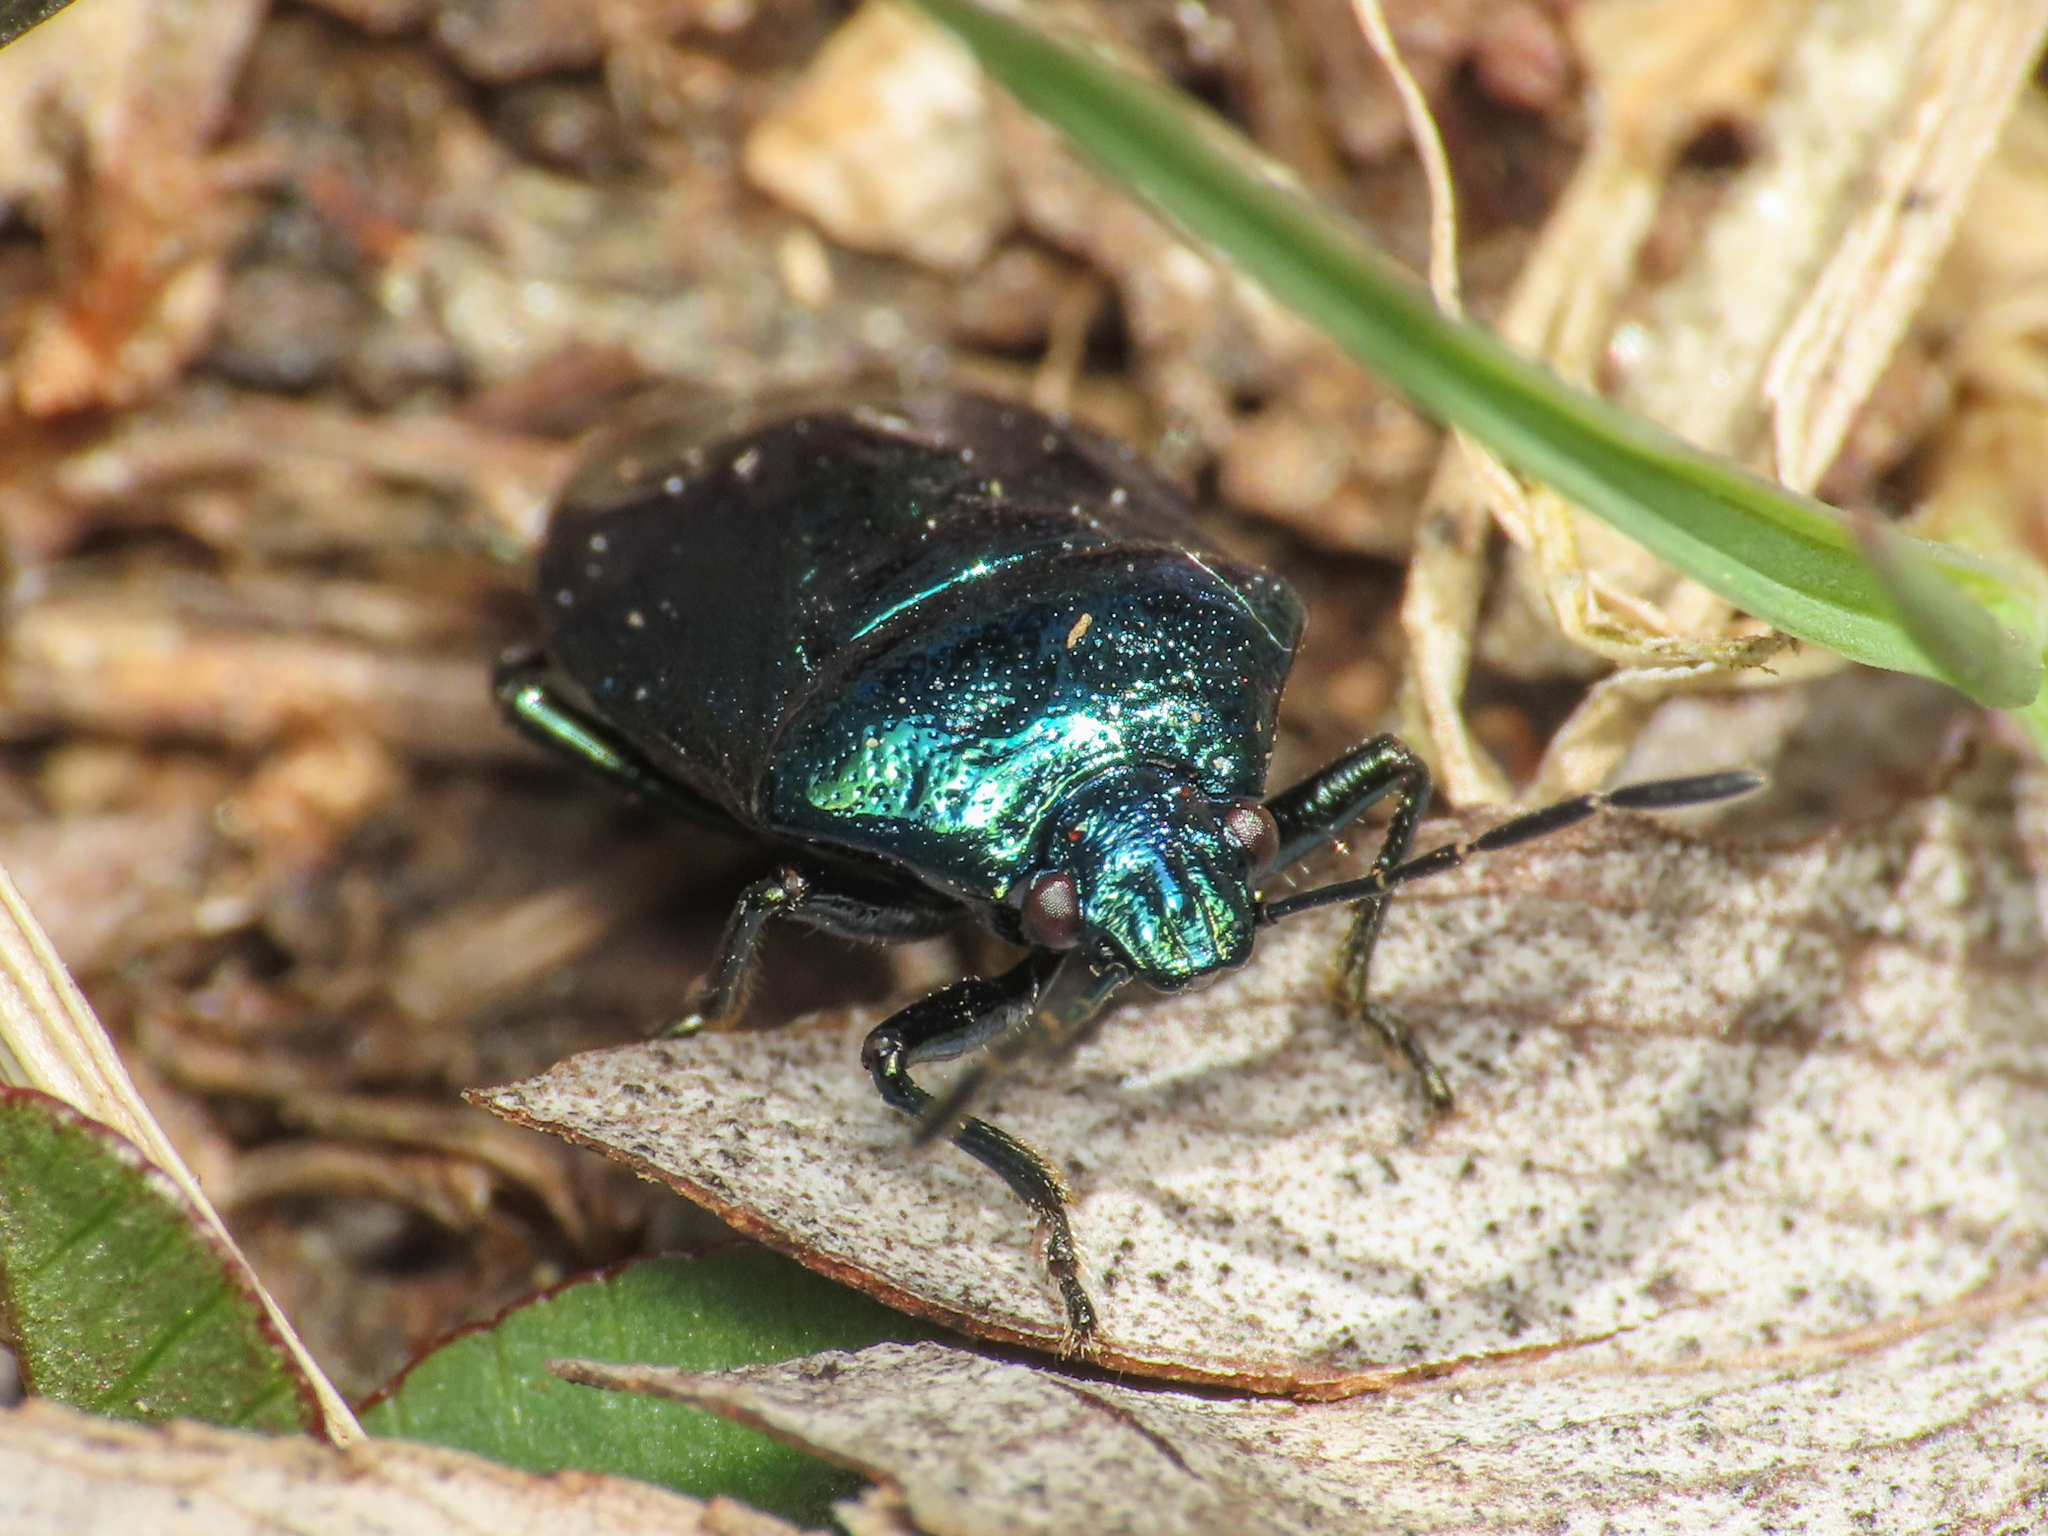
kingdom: Animalia
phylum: Arthropoda
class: Insecta
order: Hemiptera
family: Pentatomidae
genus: Zicrona
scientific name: Zicrona caerulea
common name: Blue shieldbug
